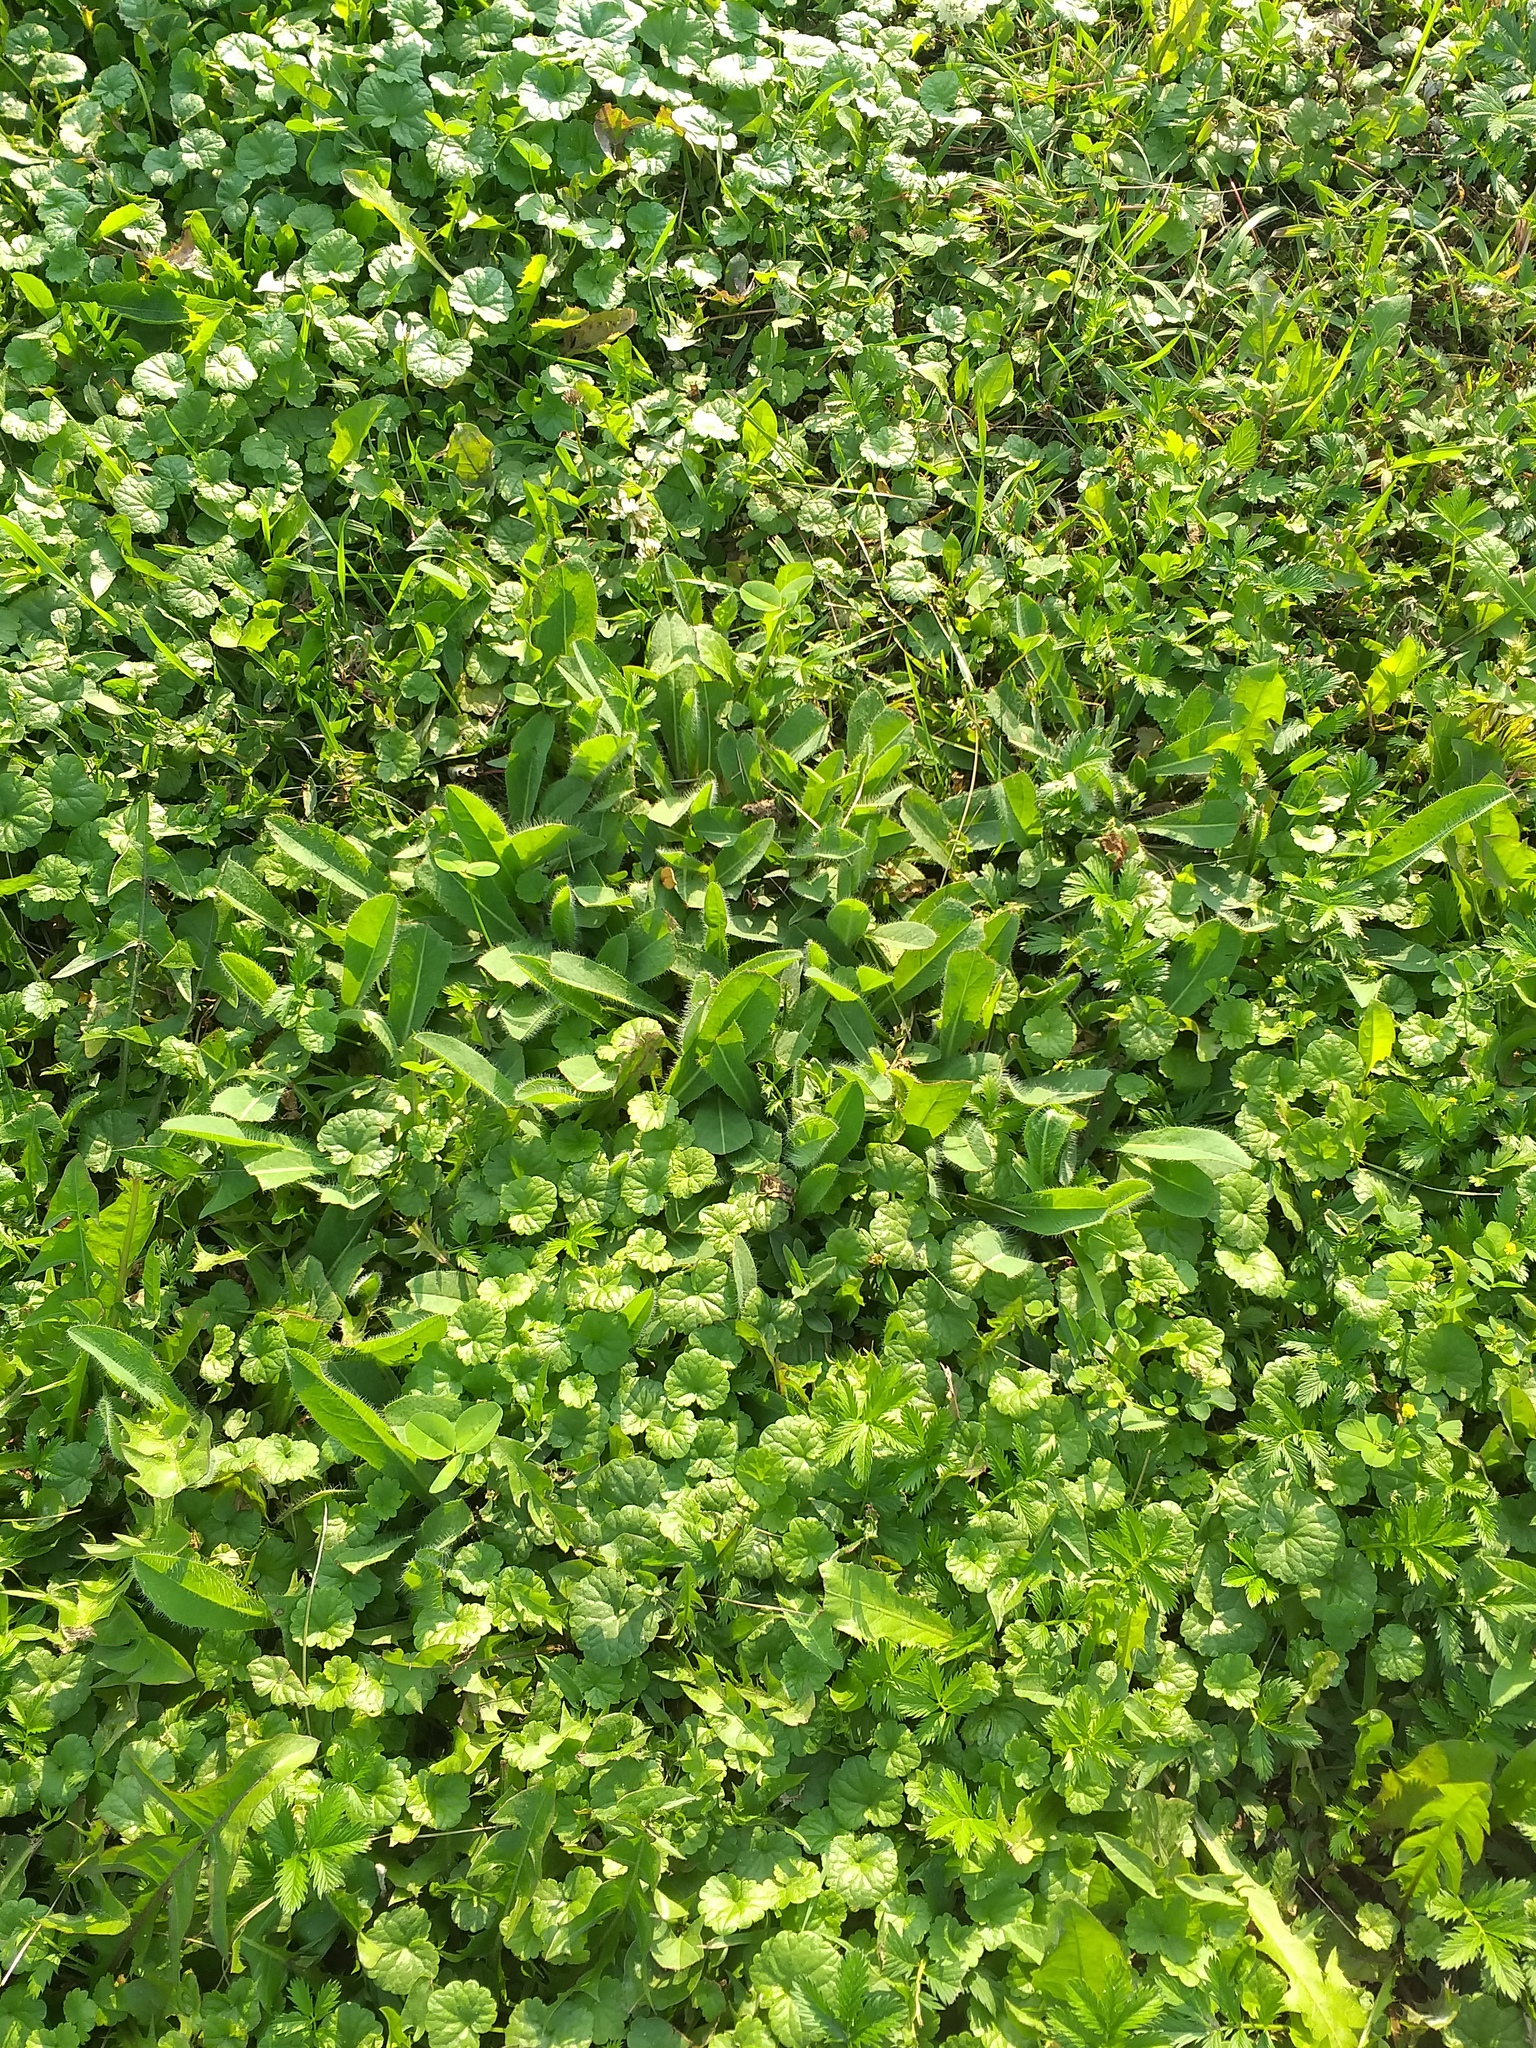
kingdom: Plantae
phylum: Tracheophyta
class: Magnoliopsida
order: Asterales
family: Asteraceae
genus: Pilosella
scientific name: Pilosella
